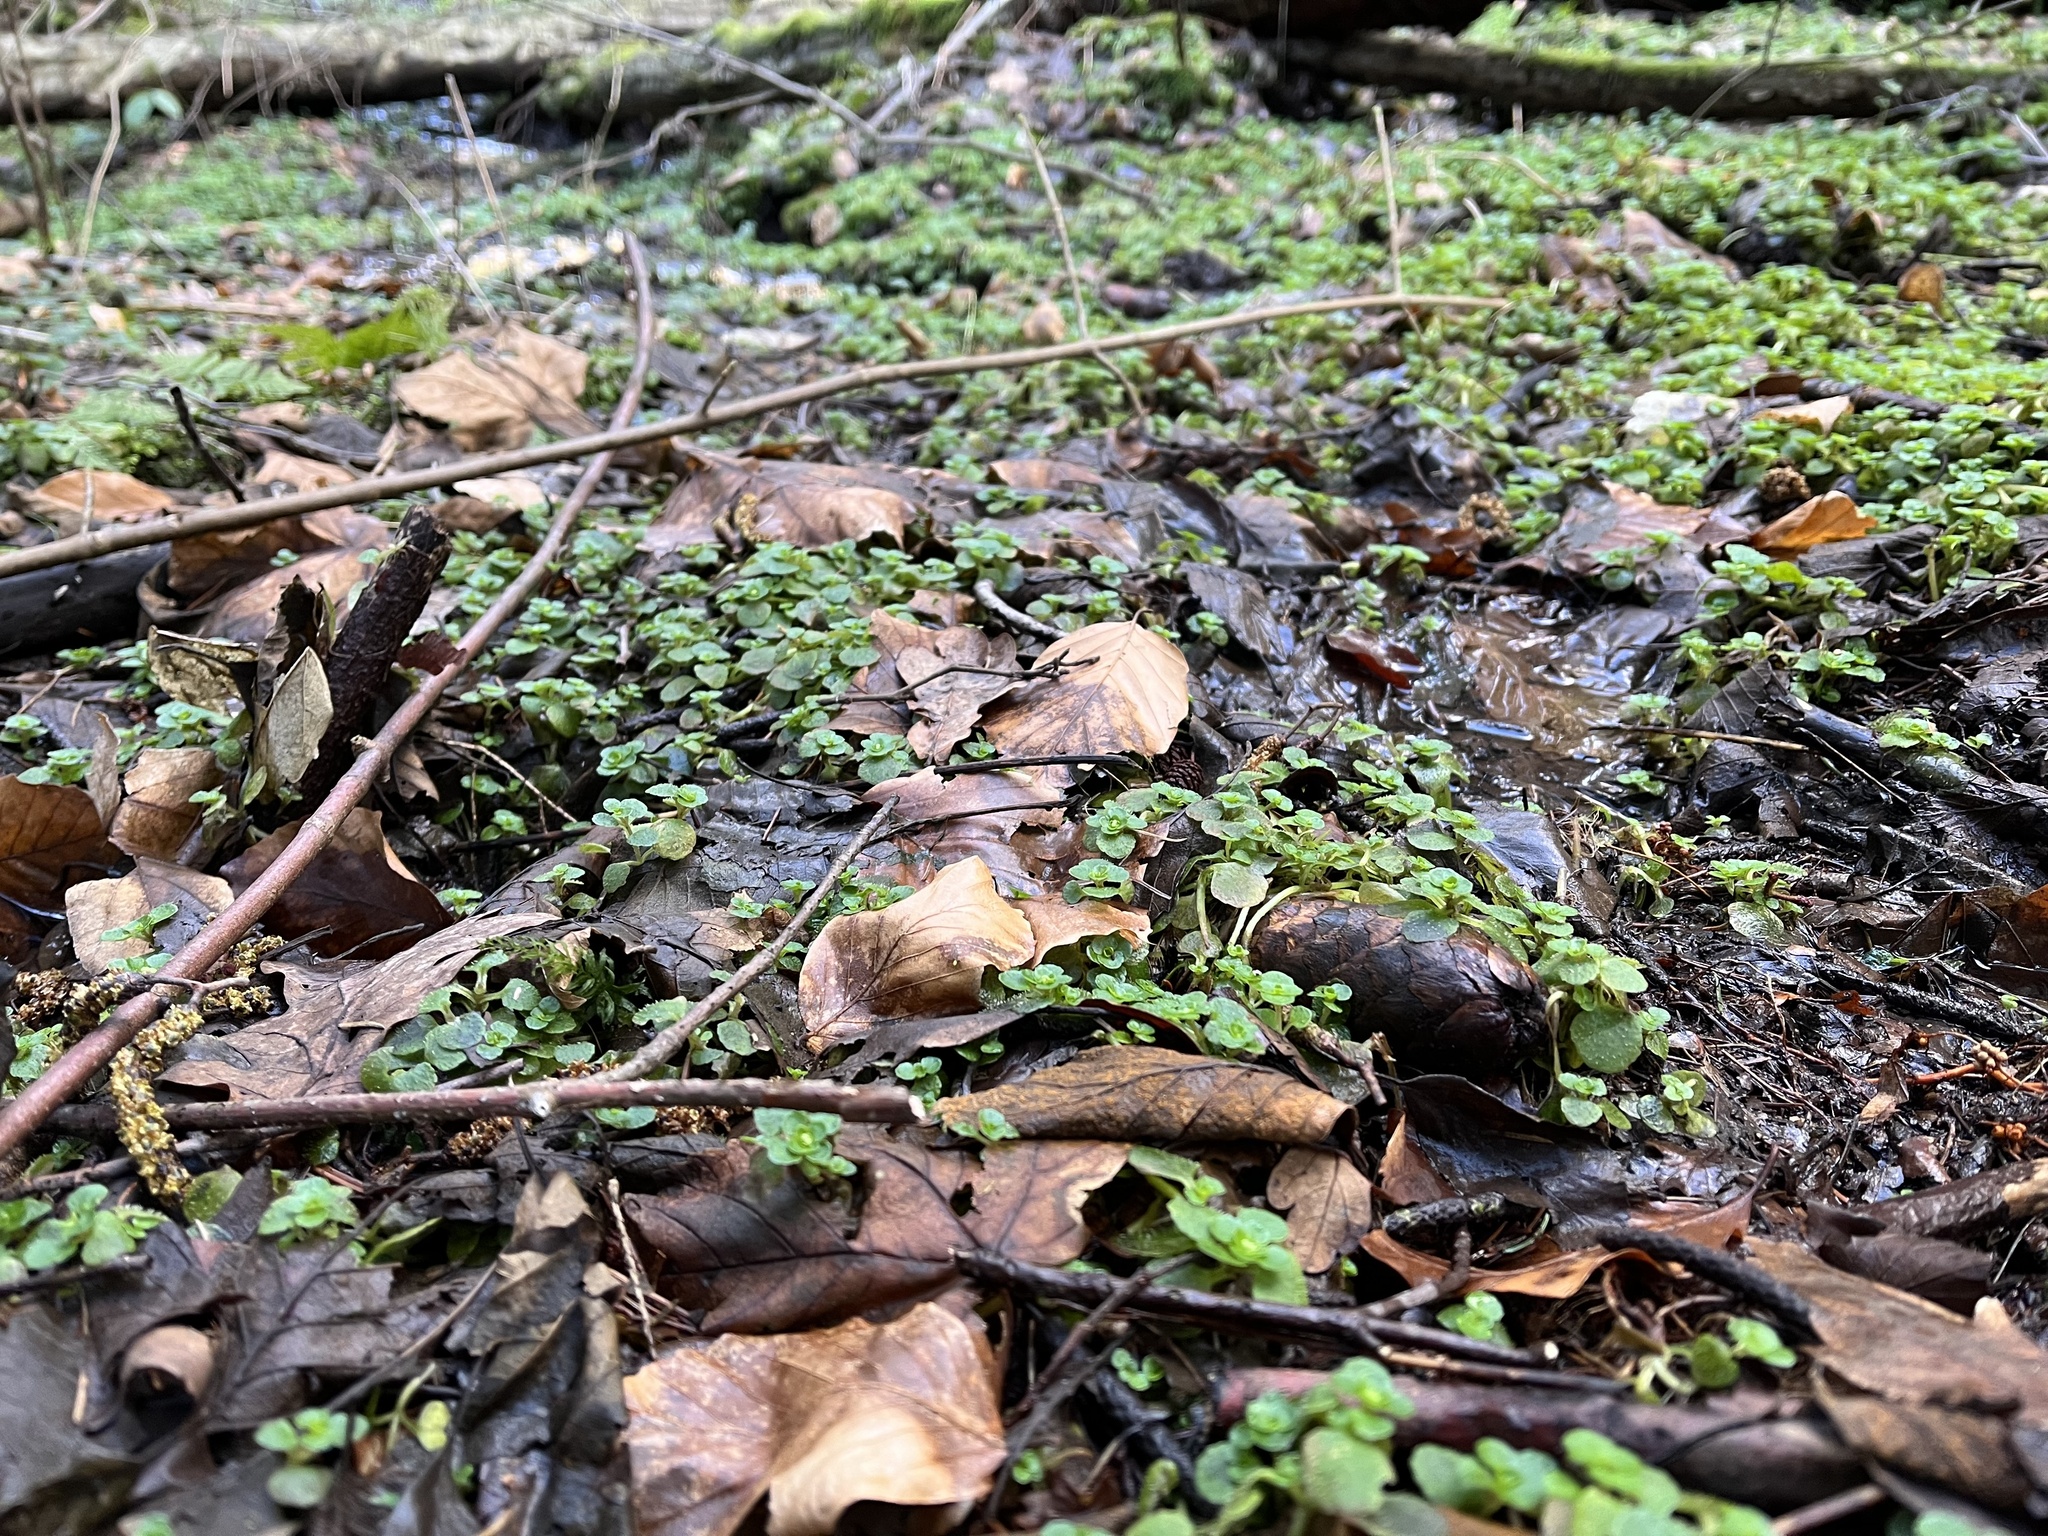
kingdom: Plantae
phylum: Tracheophyta
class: Magnoliopsida
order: Saxifragales
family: Saxifragaceae
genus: Chrysosplenium
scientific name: Chrysosplenium oppositifolium
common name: Opposite-leaved golden-saxifrage
